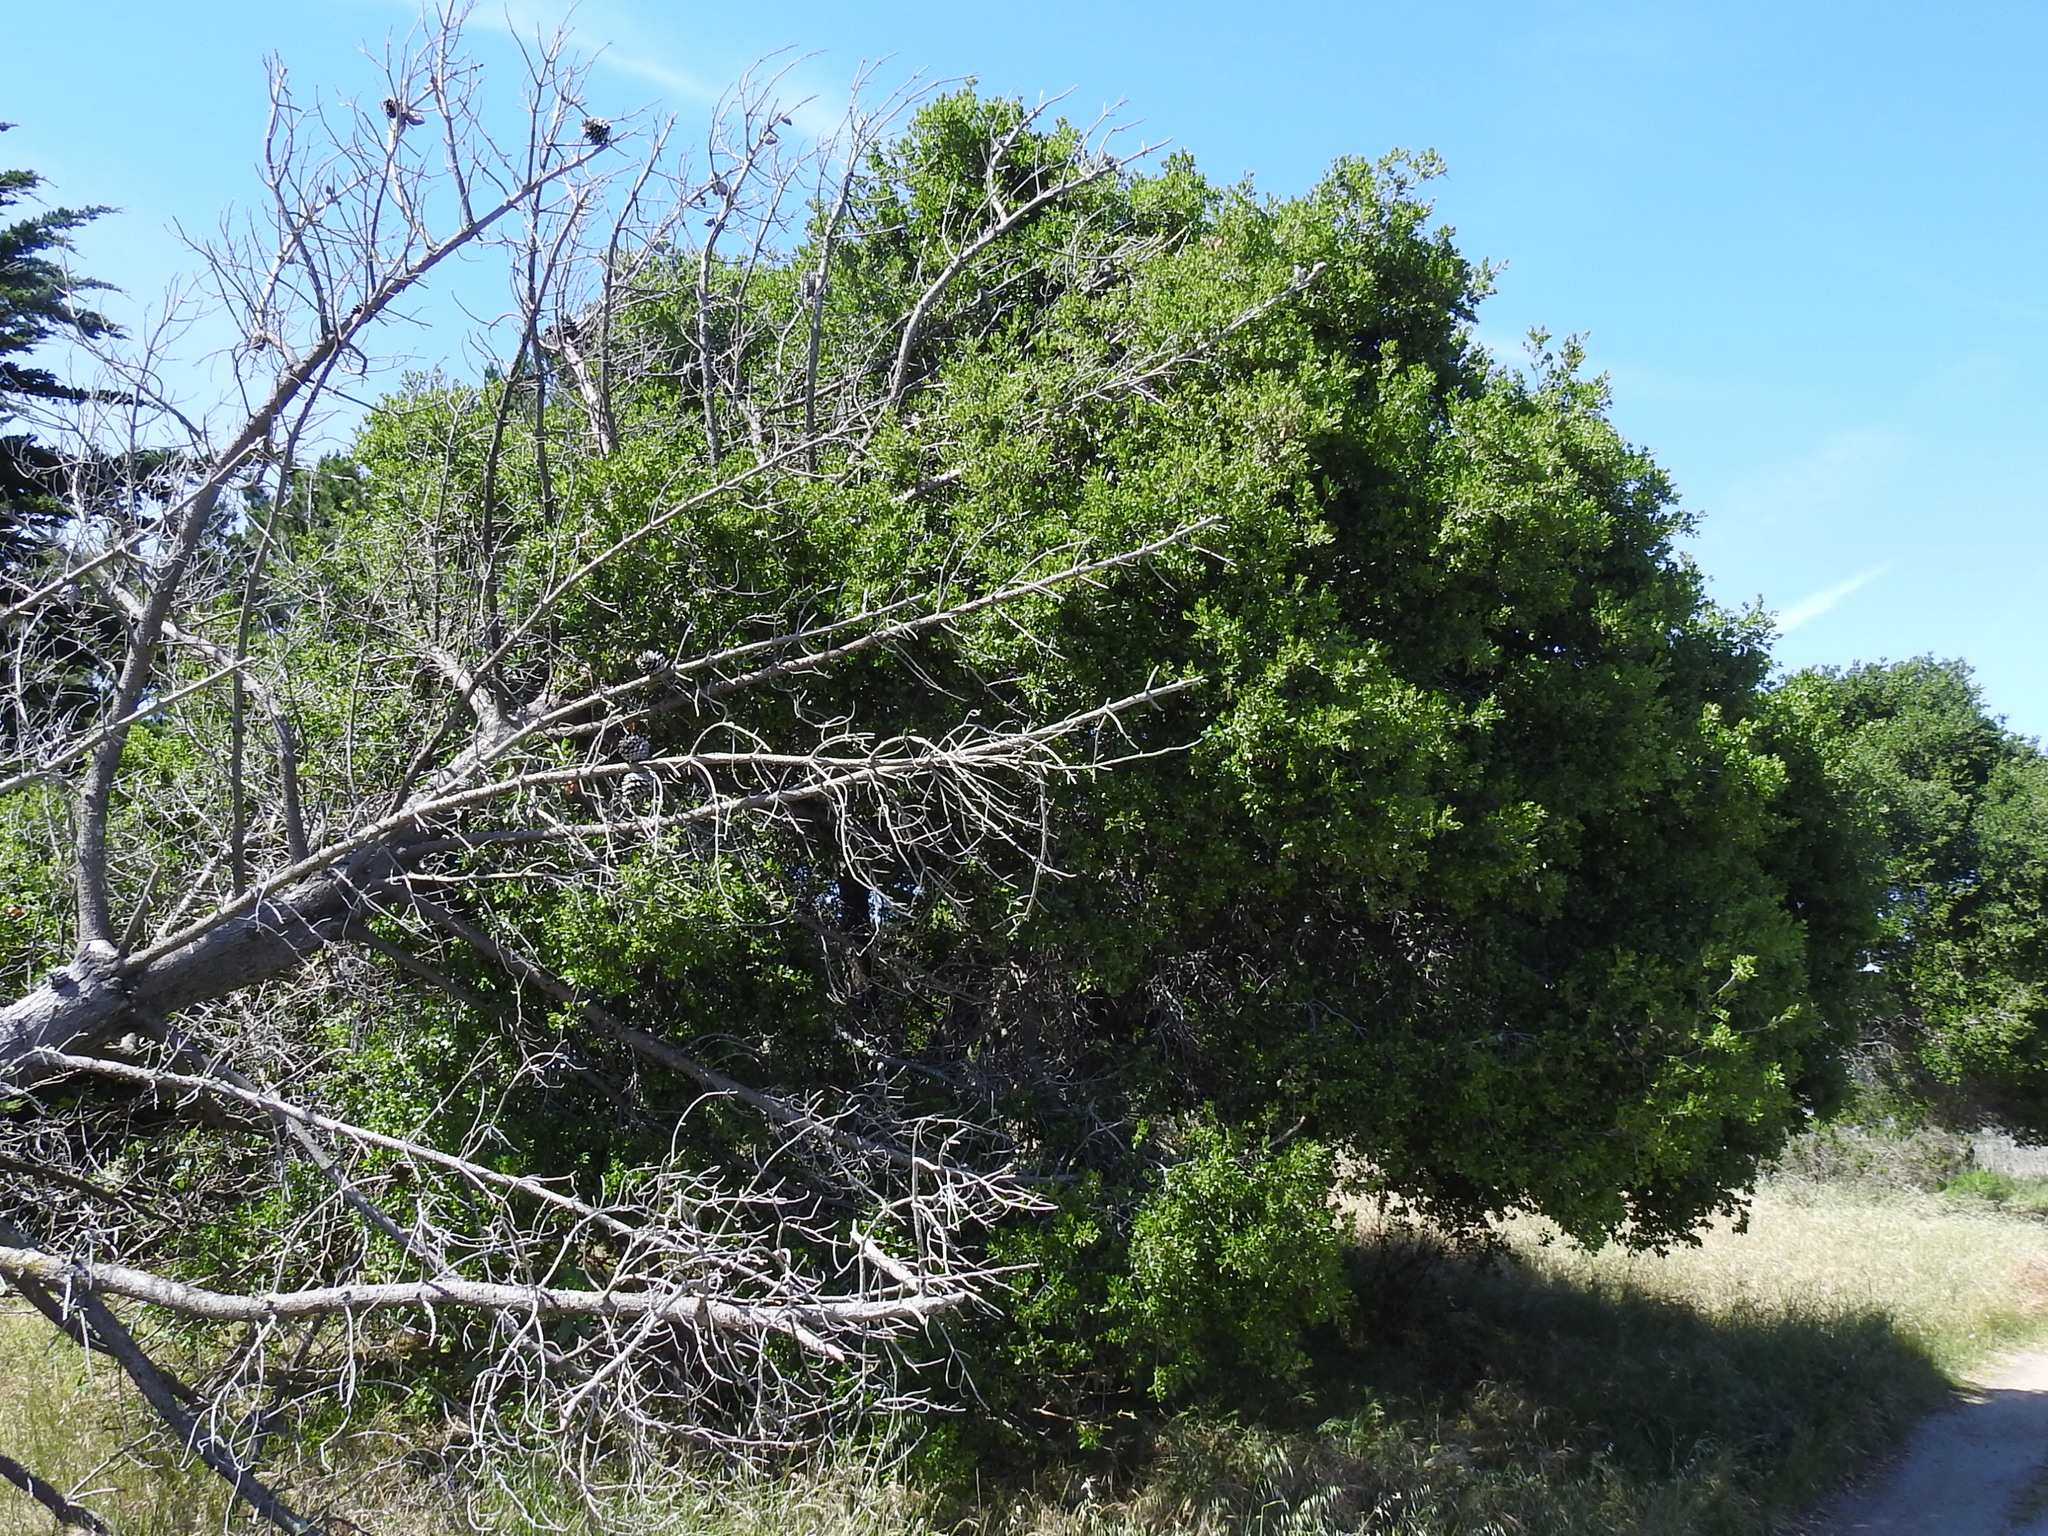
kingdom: Plantae
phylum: Tracheophyta
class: Magnoliopsida
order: Fagales
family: Fagaceae
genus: Quercus
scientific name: Quercus agrifolia
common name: California live oak
